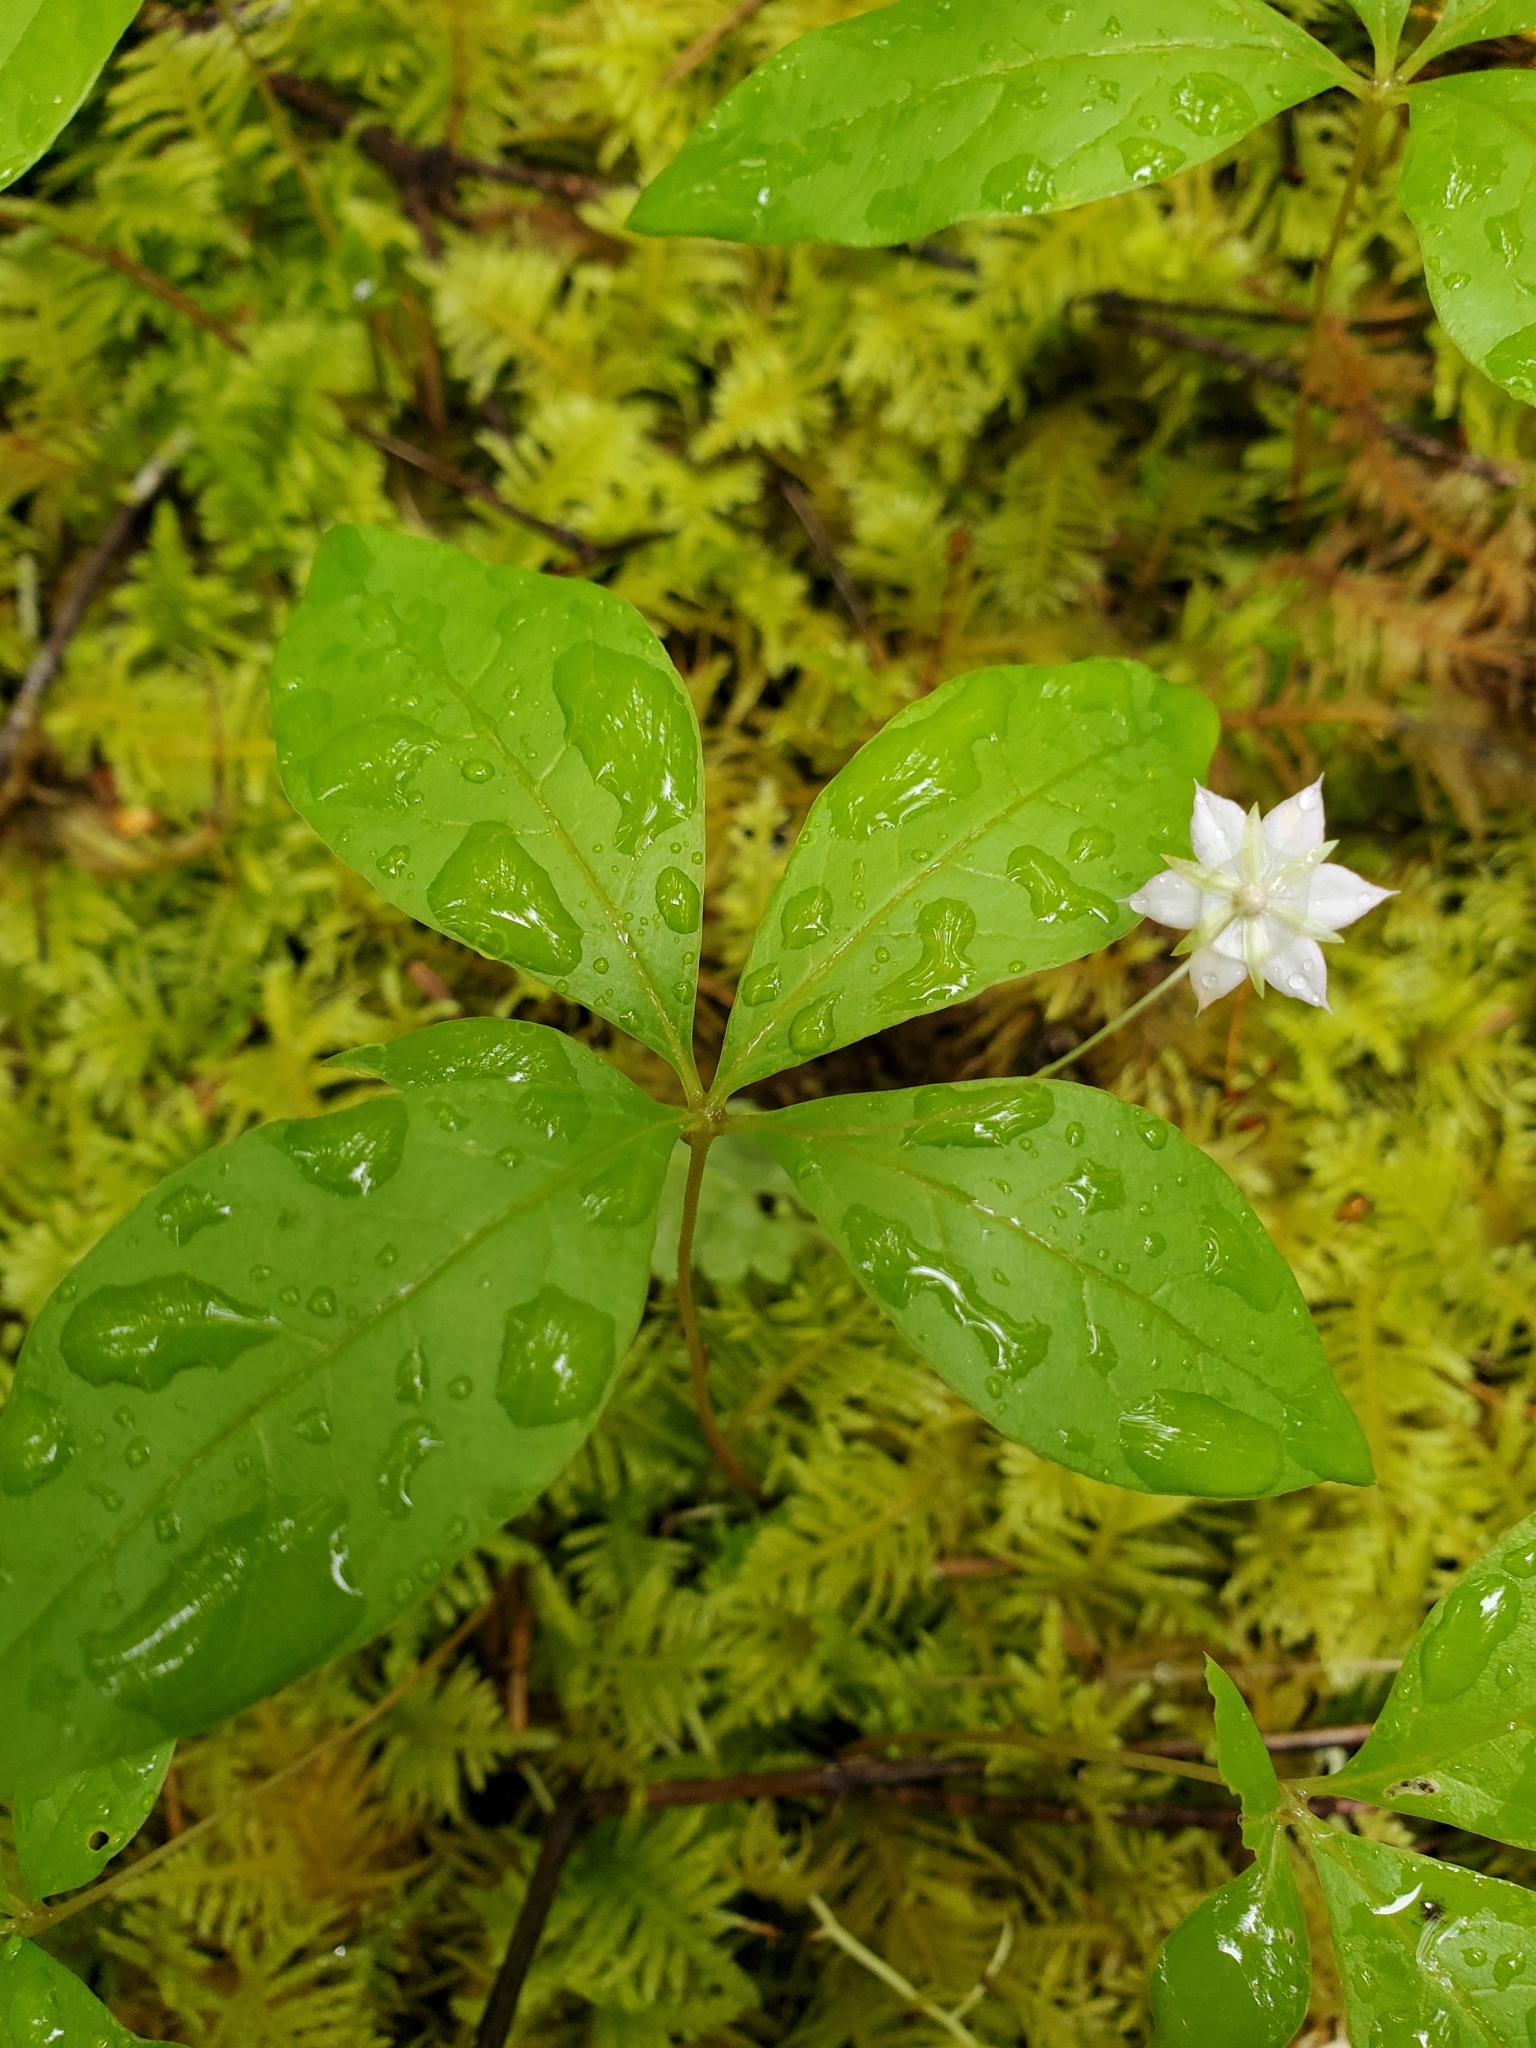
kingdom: Plantae
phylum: Tracheophyta
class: Magnoliopsida
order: Ericales
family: Primulaceae
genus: Lysimachia
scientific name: Lysimachia latifolia
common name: Pacific starflower
